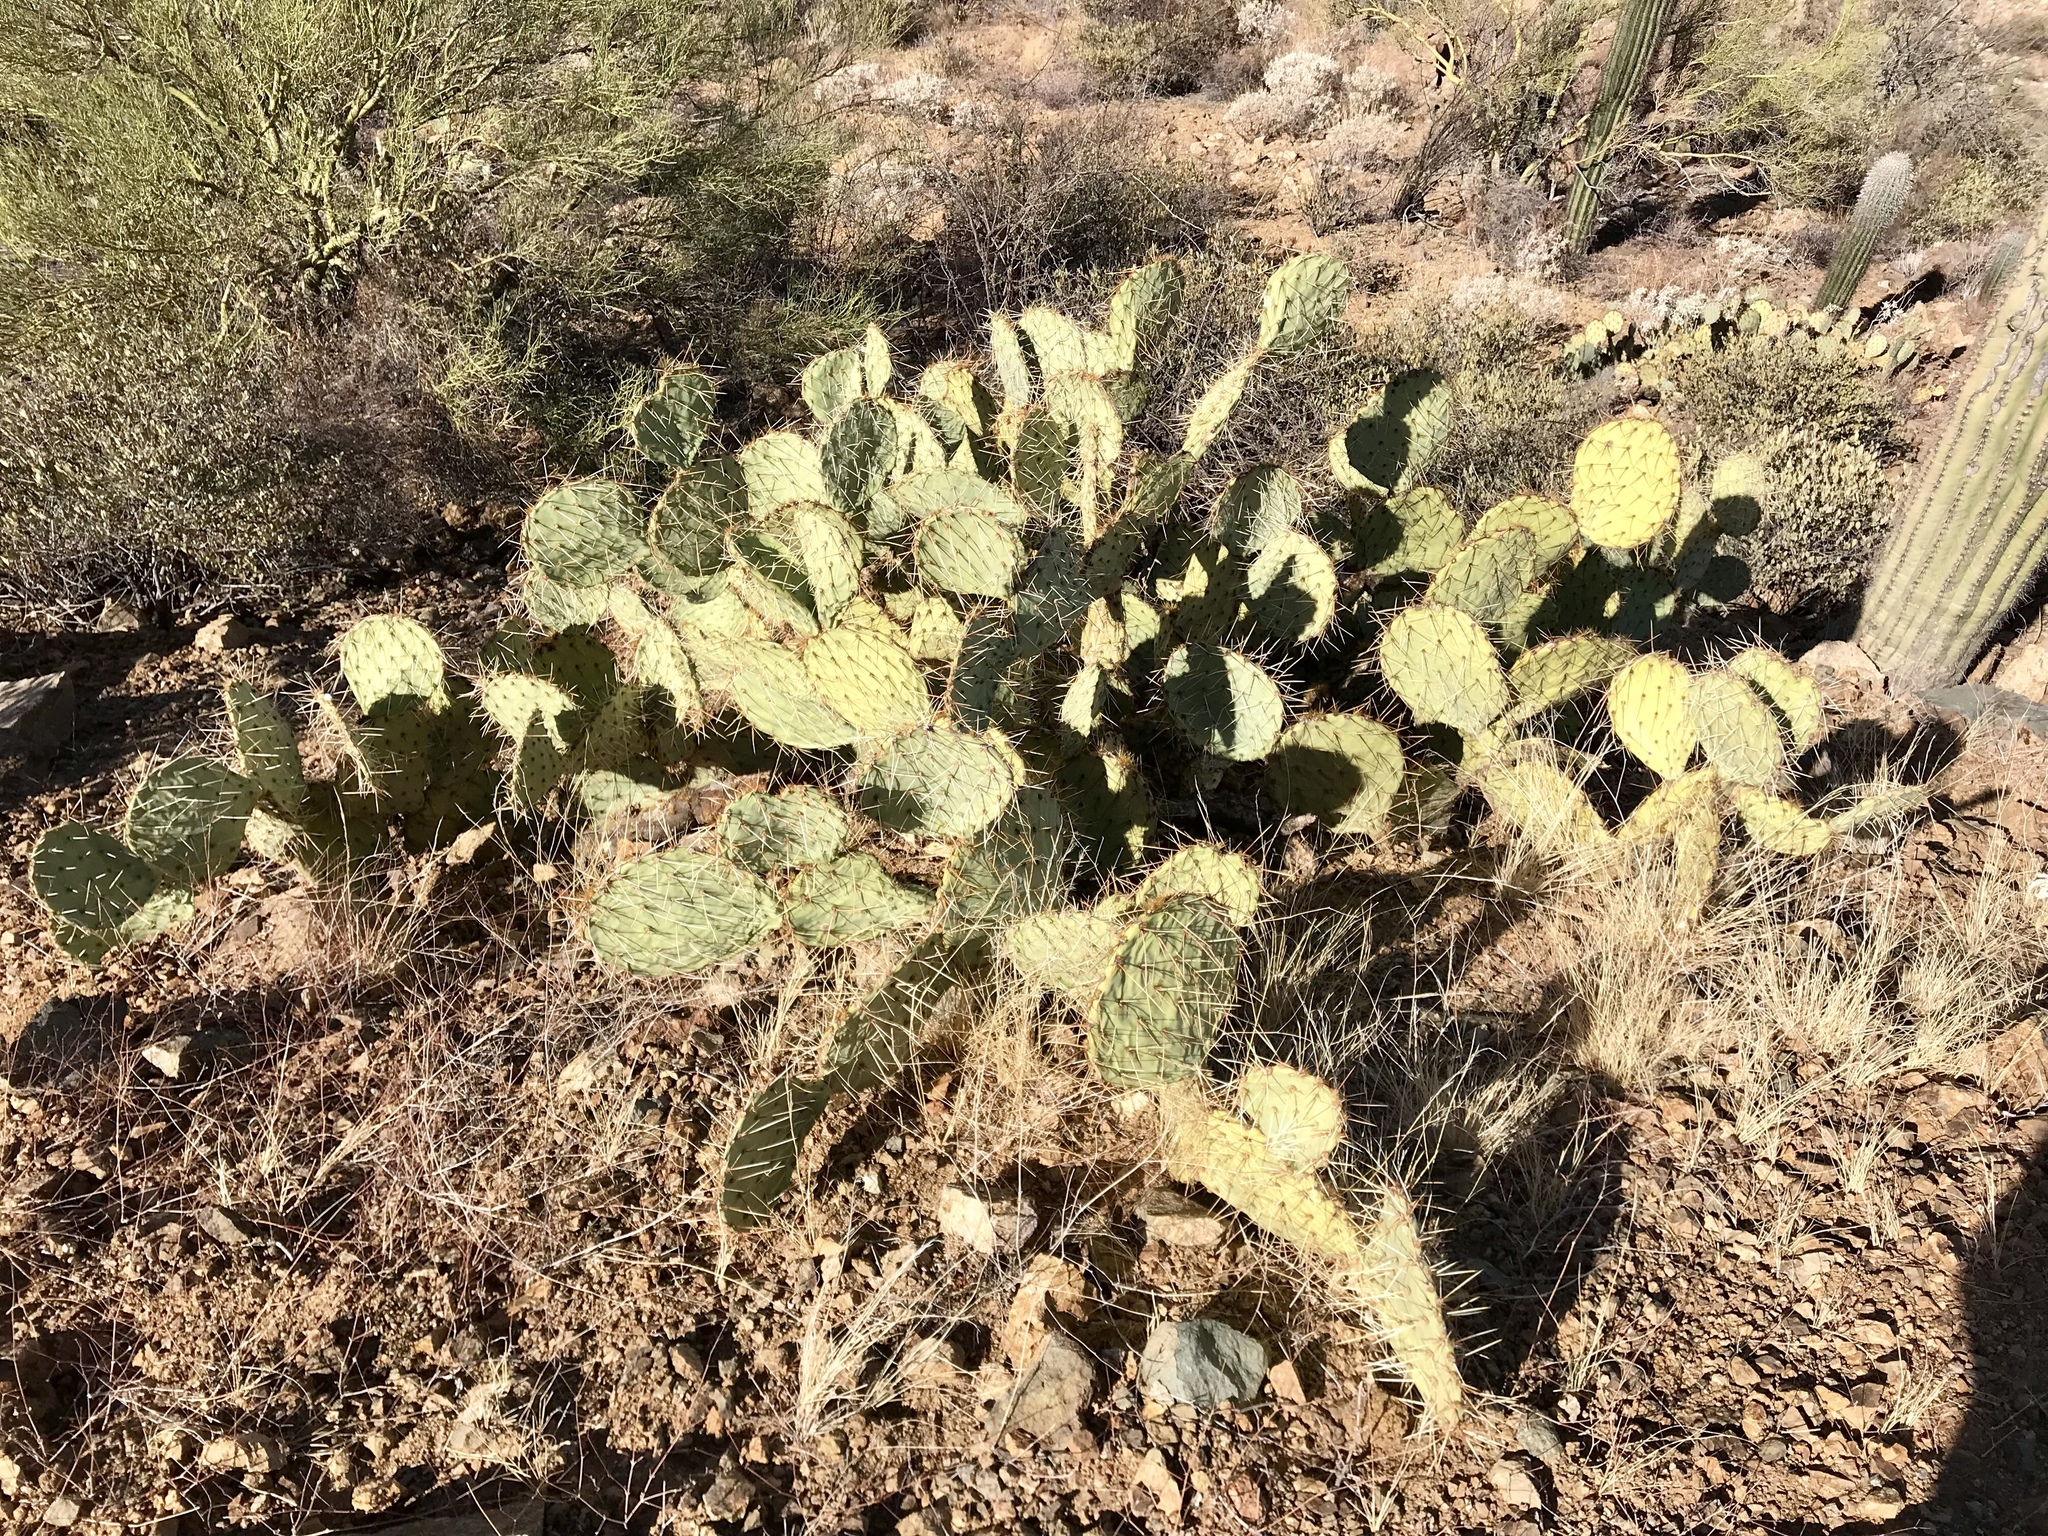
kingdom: Plantae
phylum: Tracheophyta
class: Magnoliopsida
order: Caryophyllales
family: Cactaceae
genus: Opuntia
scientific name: Opuntia engelmannii
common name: Cactus-apple
